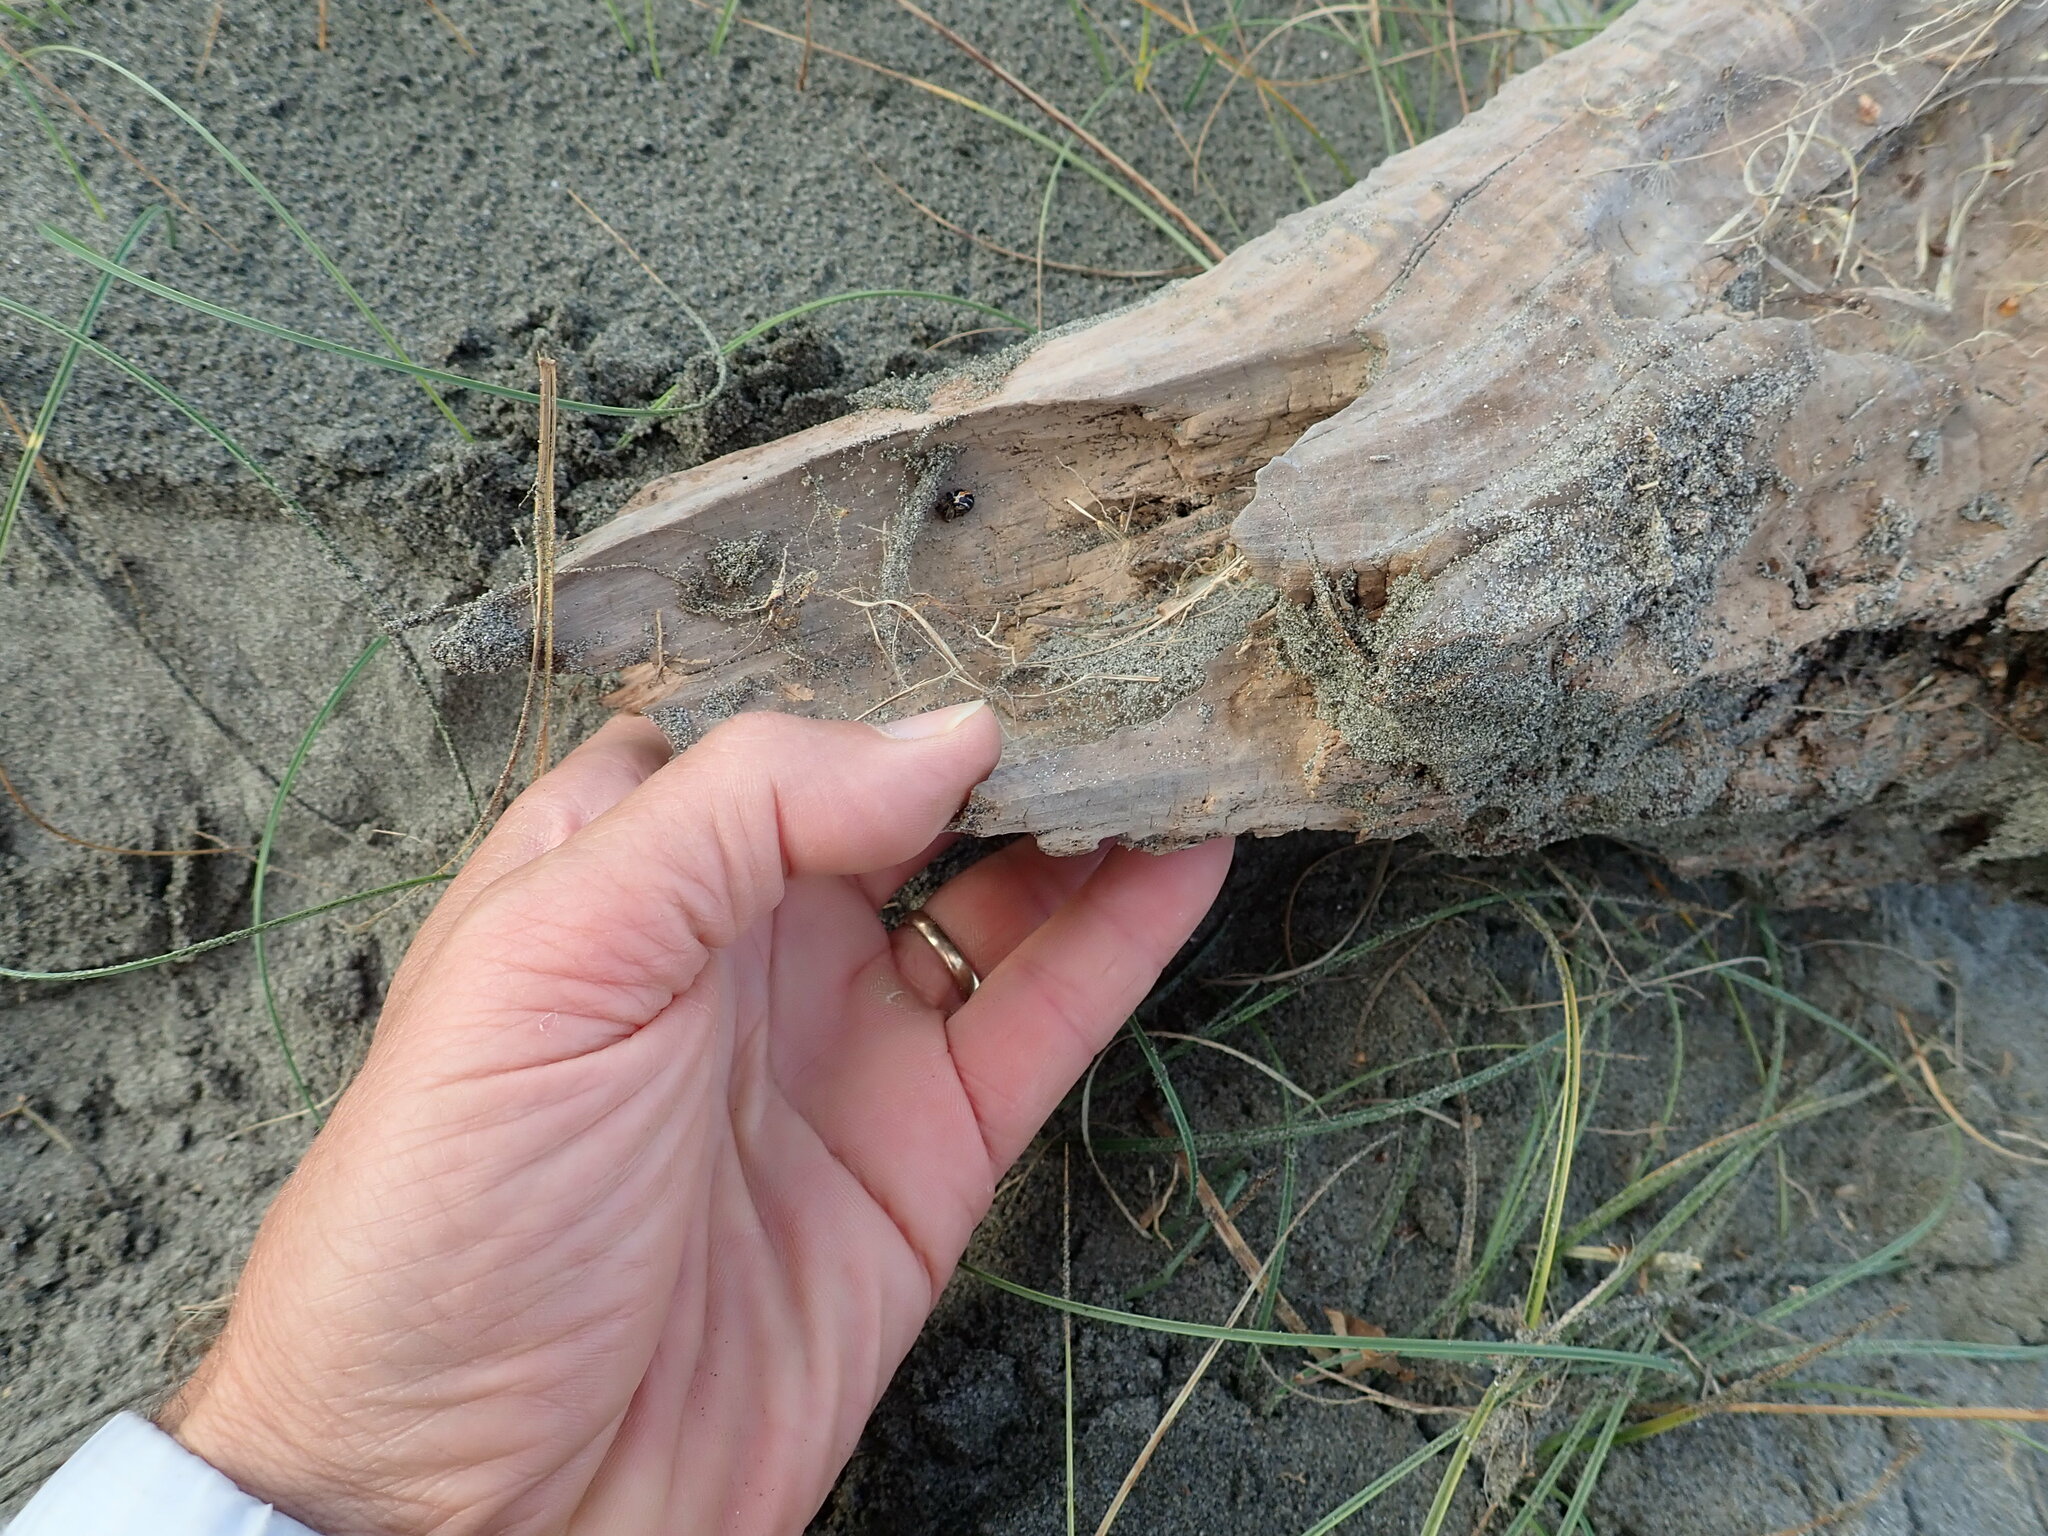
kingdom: Animalia
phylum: Arthropoda
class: Arachnida
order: Araneae
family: Theridiidae
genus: Latrodectus
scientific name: Latrodectus katipo
